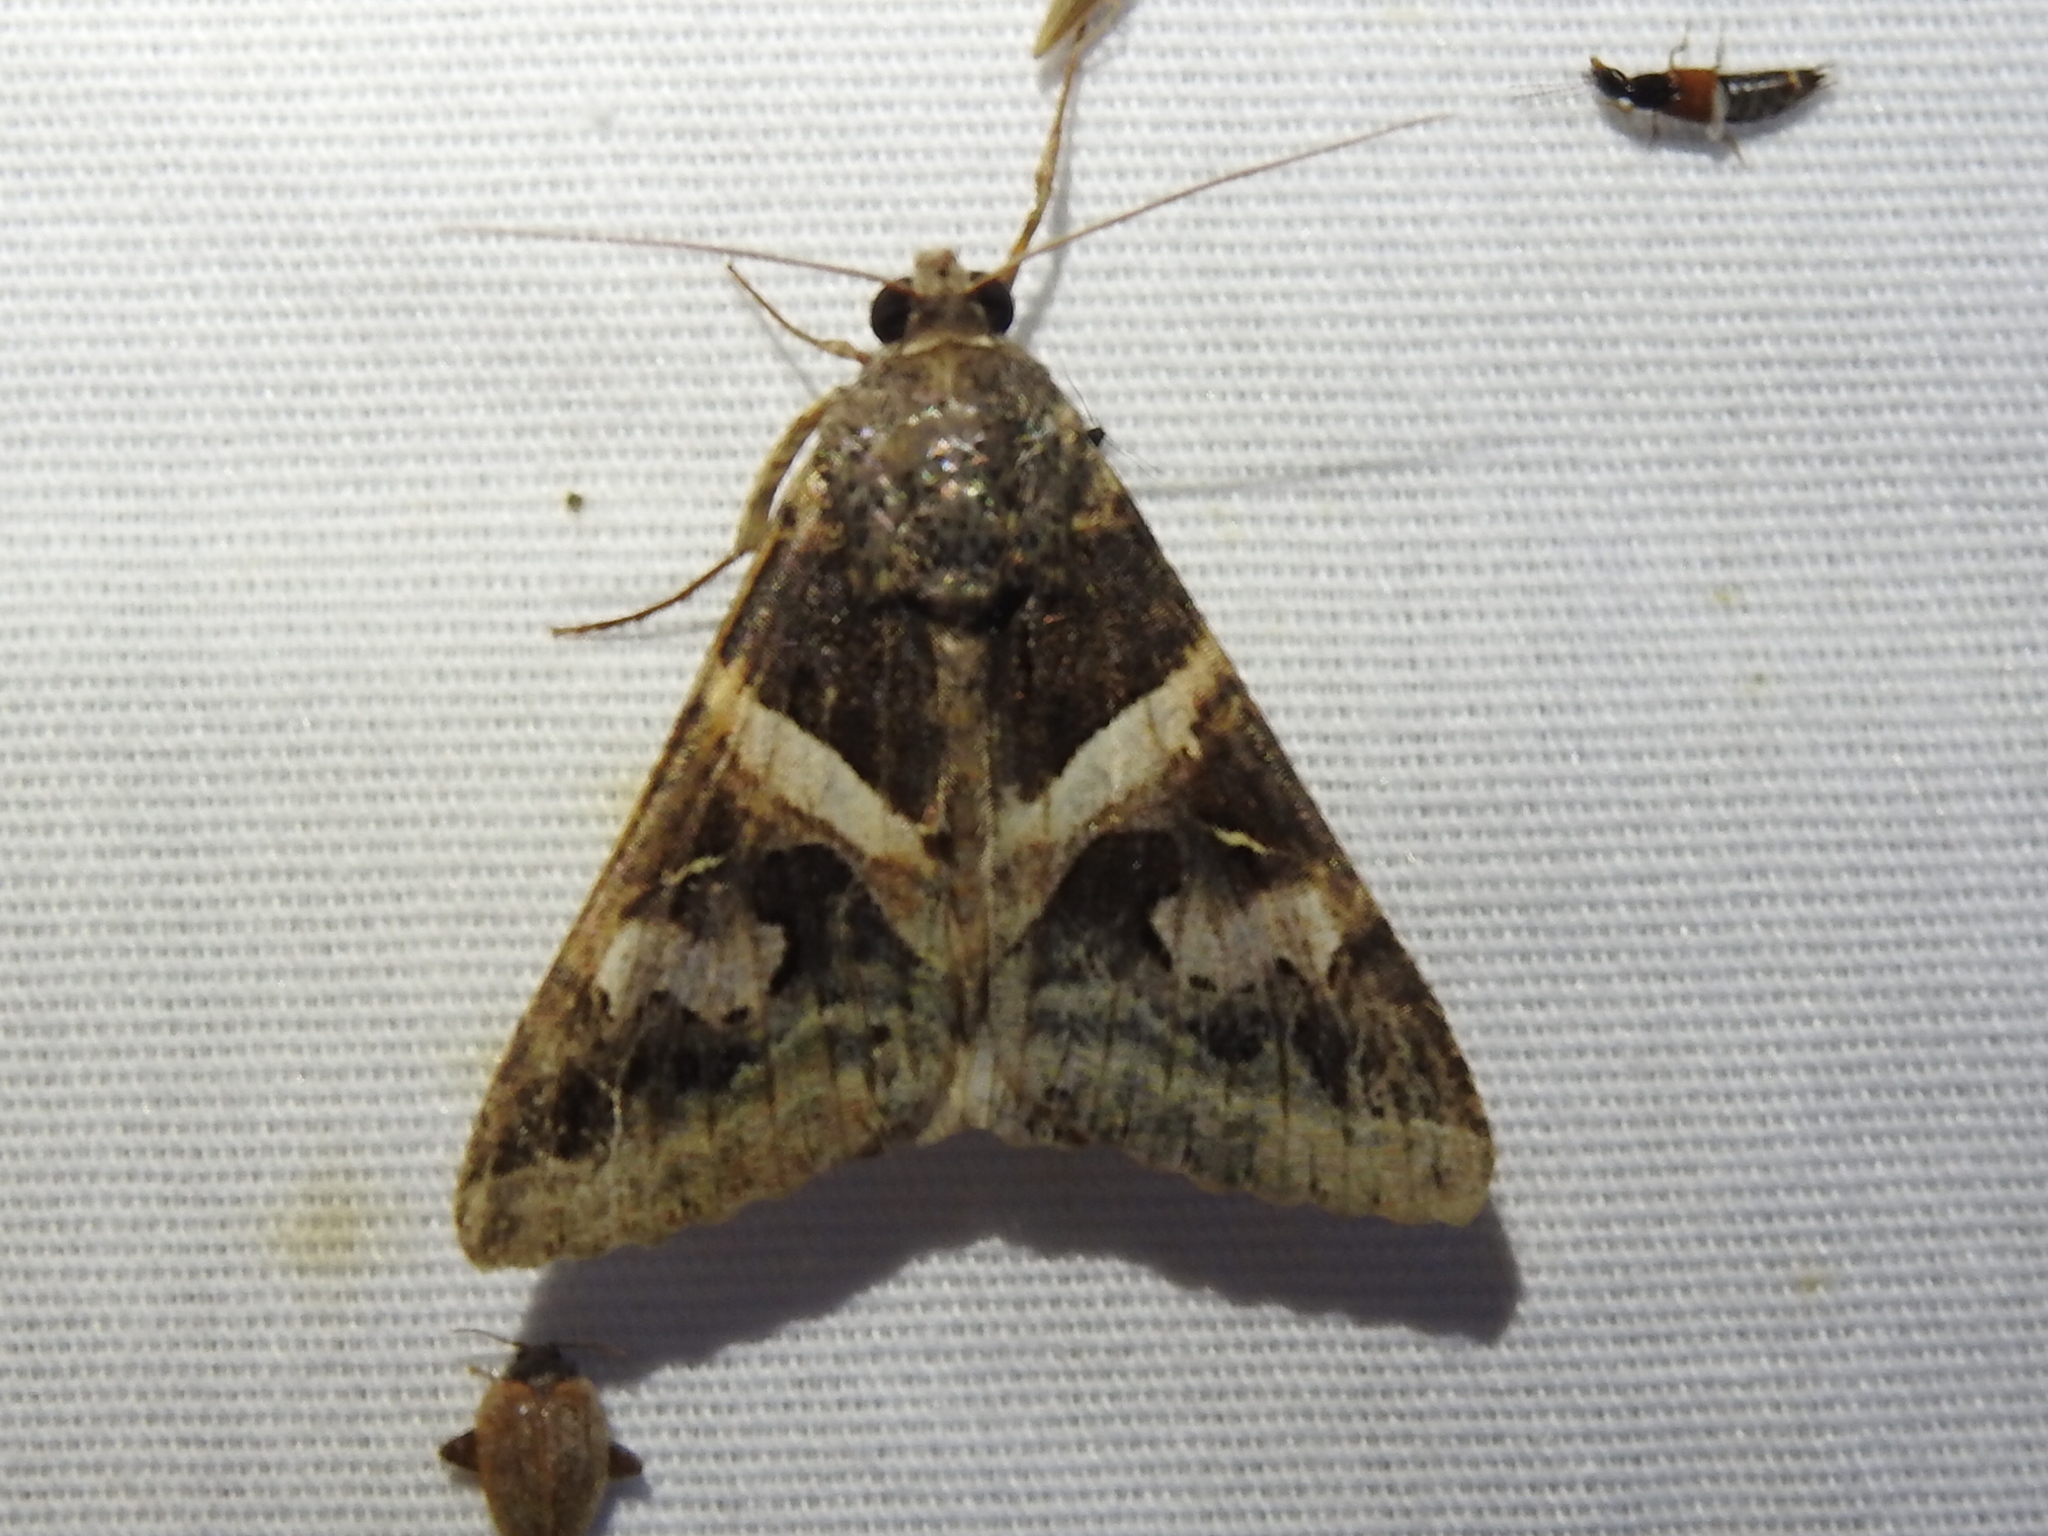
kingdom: Animalia
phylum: Arthropoda
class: Insecta
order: Lepidoptera
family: Erebidae
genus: Melipotis
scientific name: Melipotis indomita
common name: Moth
